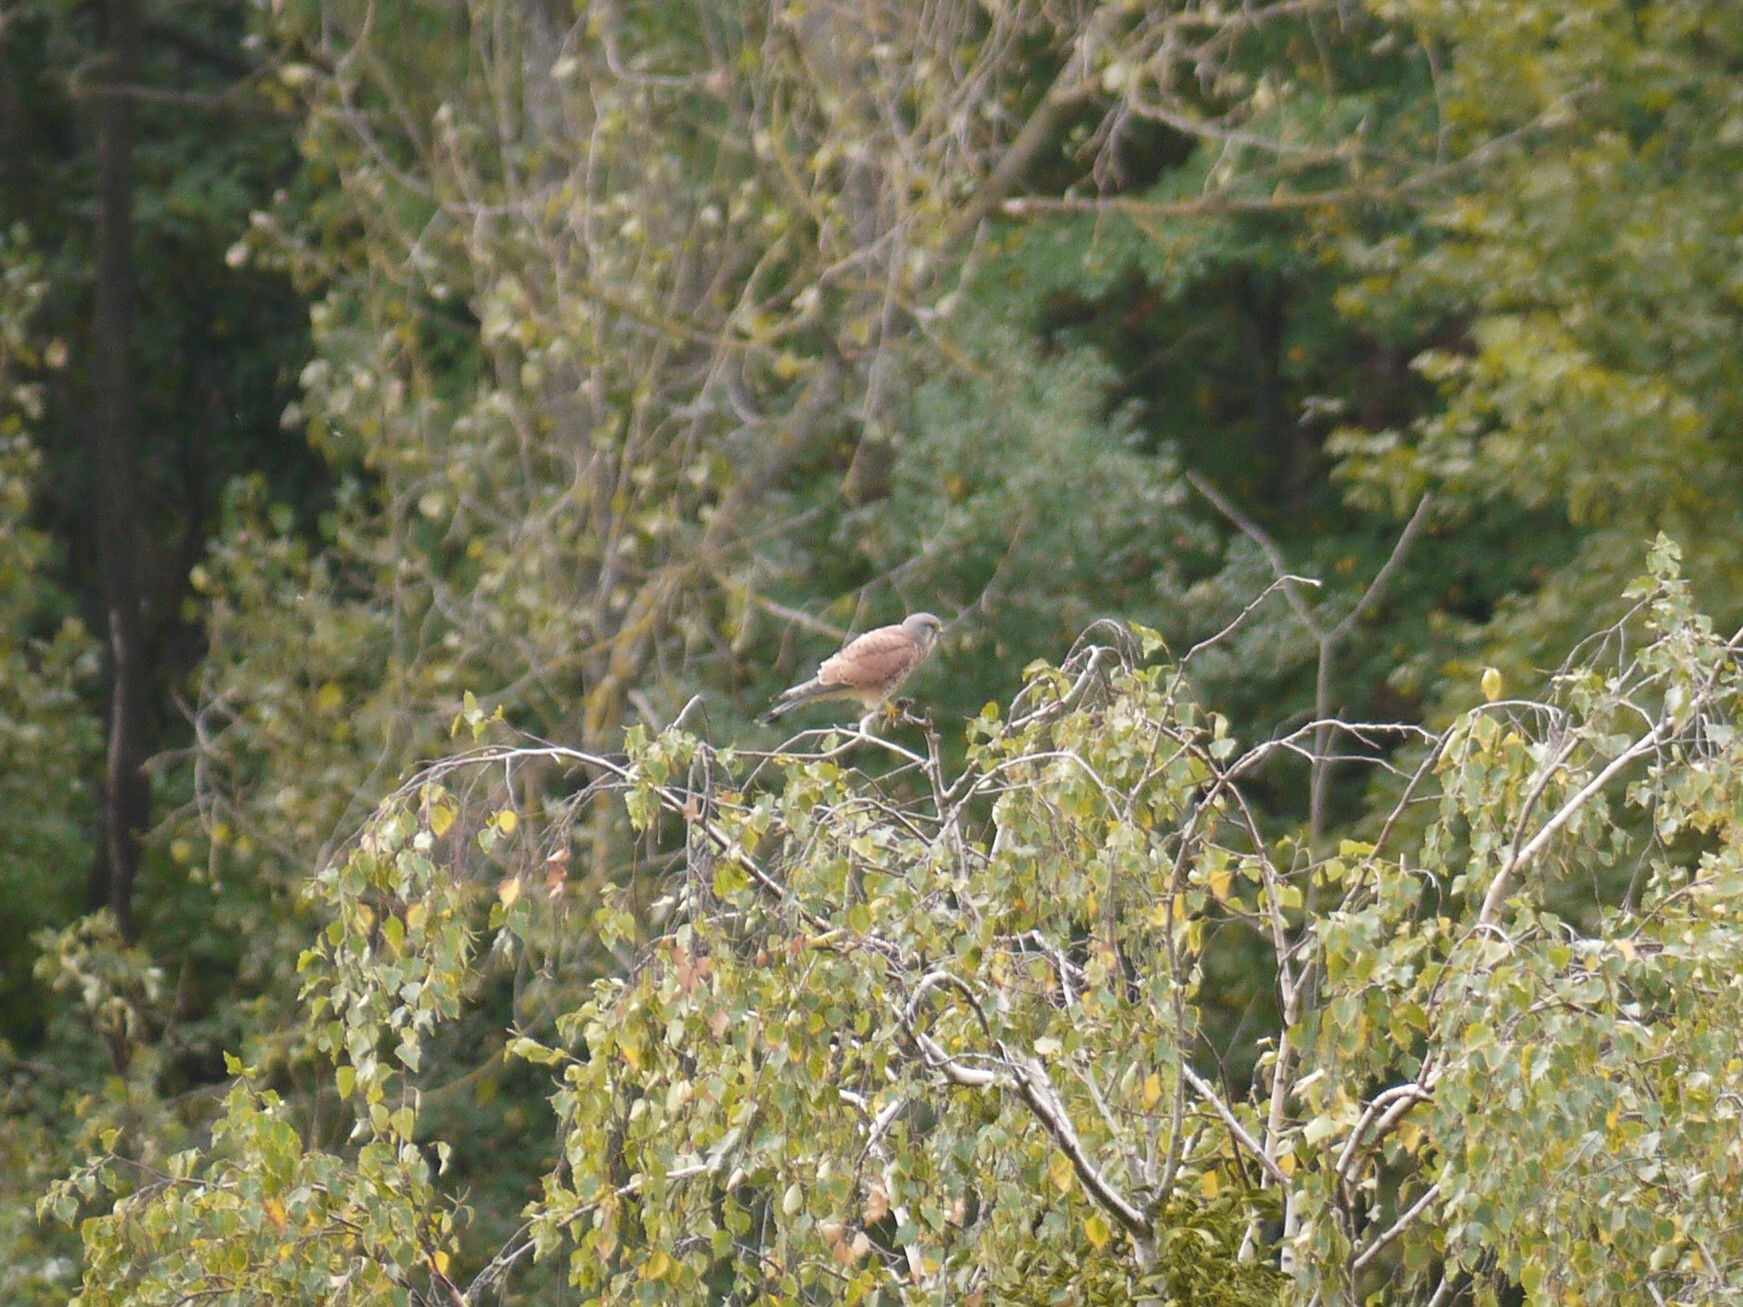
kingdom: Animalia
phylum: Chordata
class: Aves
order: Falconiformes
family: Falconidae
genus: Falco
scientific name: Falco tinnunculus
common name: Common kestrel
